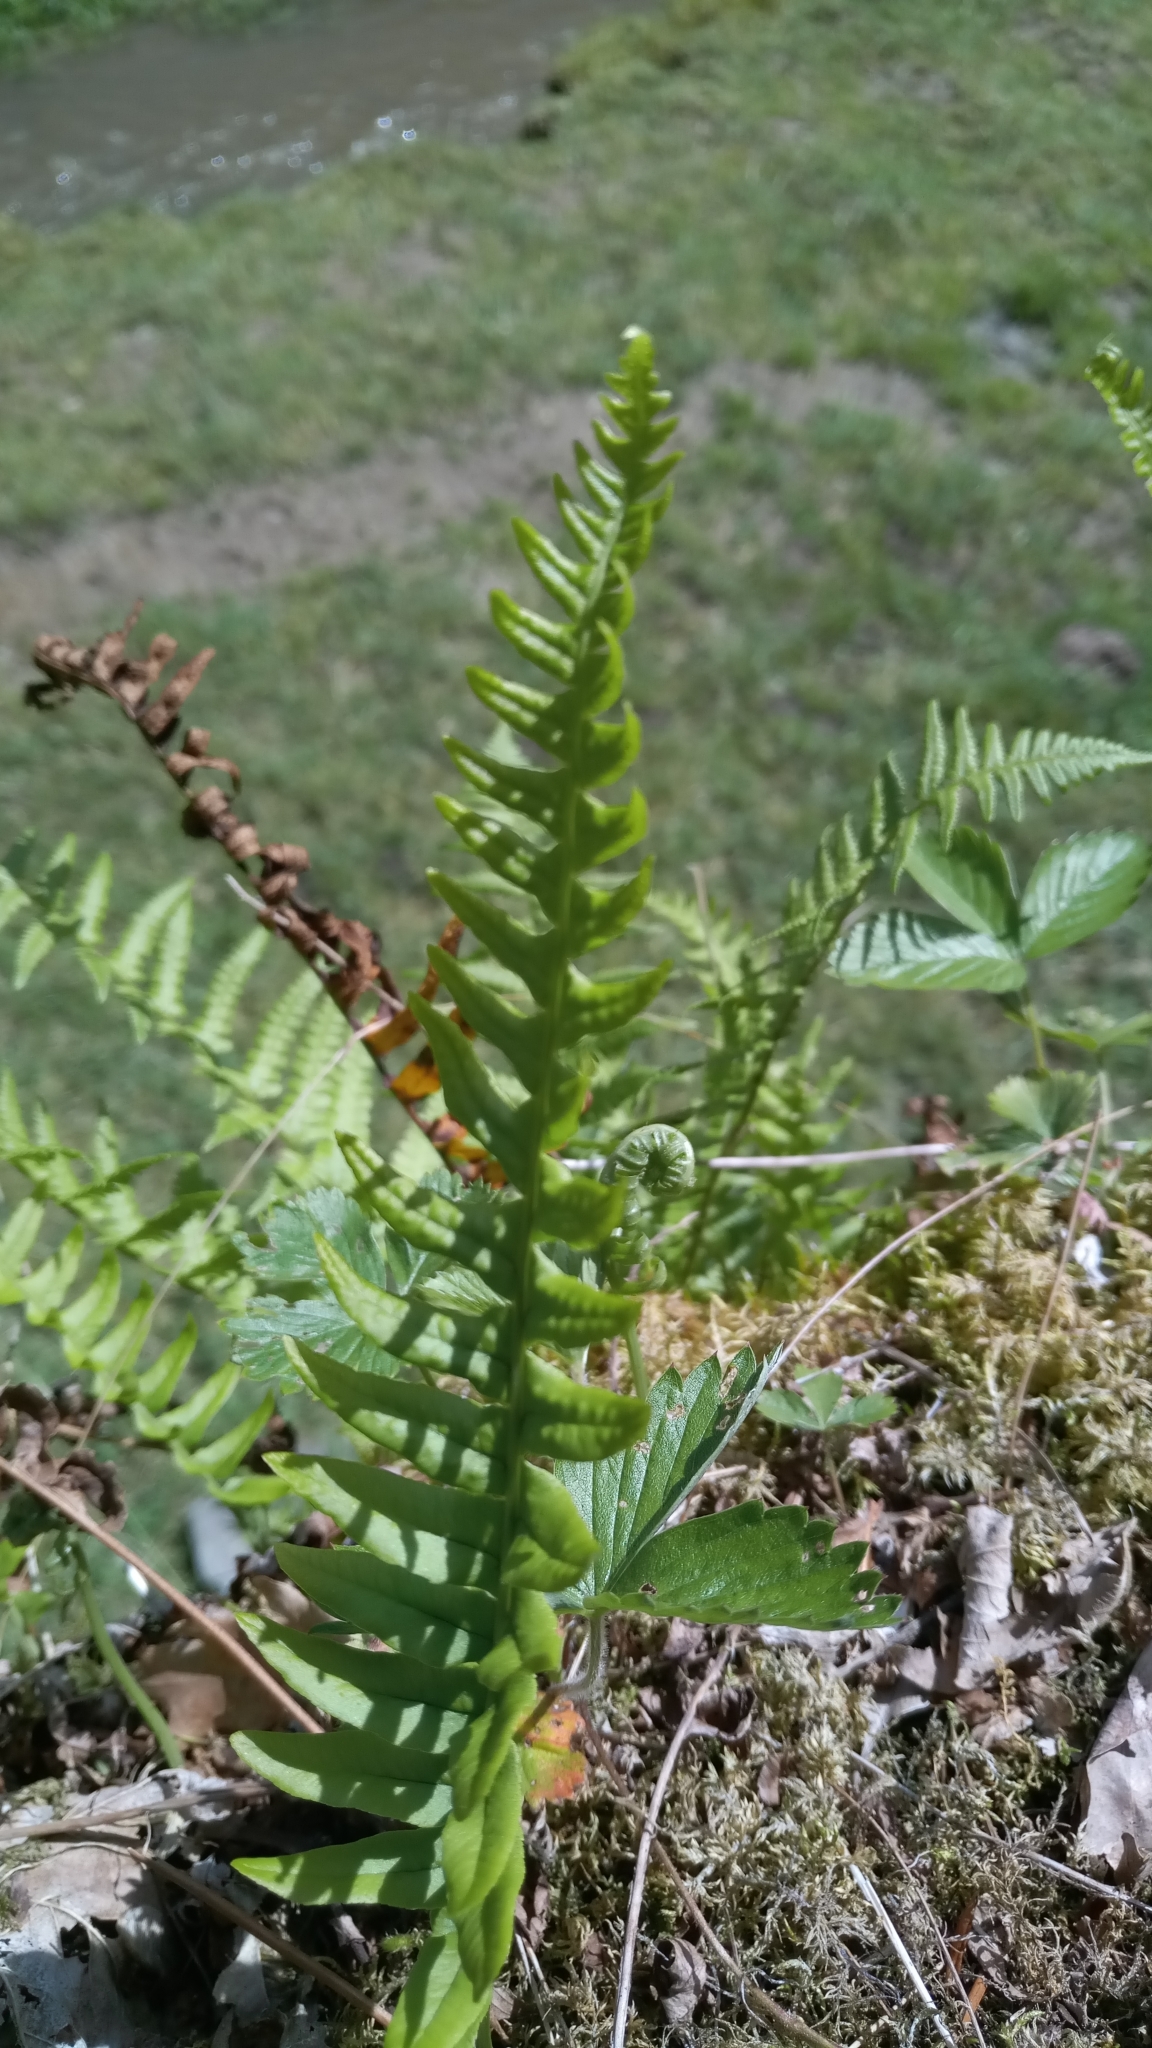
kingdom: Plantae
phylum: Tracheophyta
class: Polypodiopsida
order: Polypodiales
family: Polypodiaceae
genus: Polypodium
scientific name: Polypodium vulgare
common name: Common polypody
